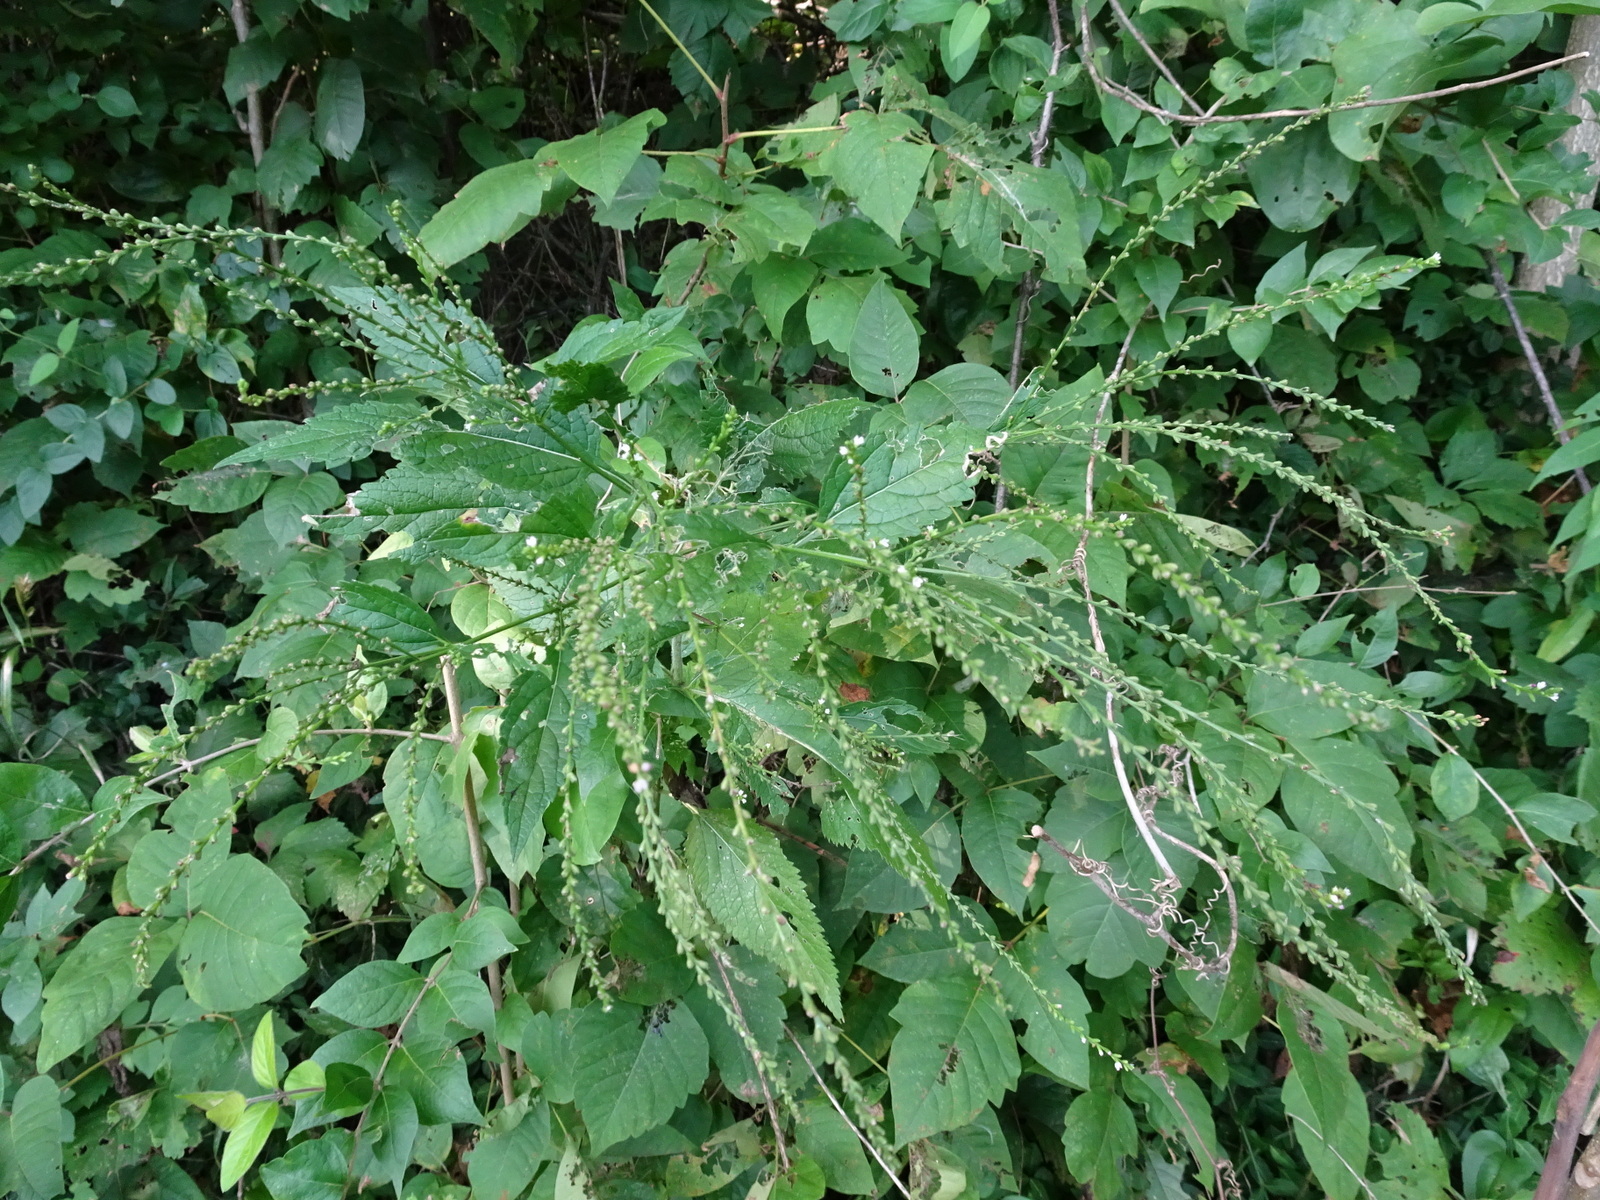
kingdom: Plantae
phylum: Tracheophyta
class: Magnoliopsida
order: Lamiales
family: Verbenaceae
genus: Verbena
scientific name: Verbena urticifolia
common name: Nettle-leaved vervain
